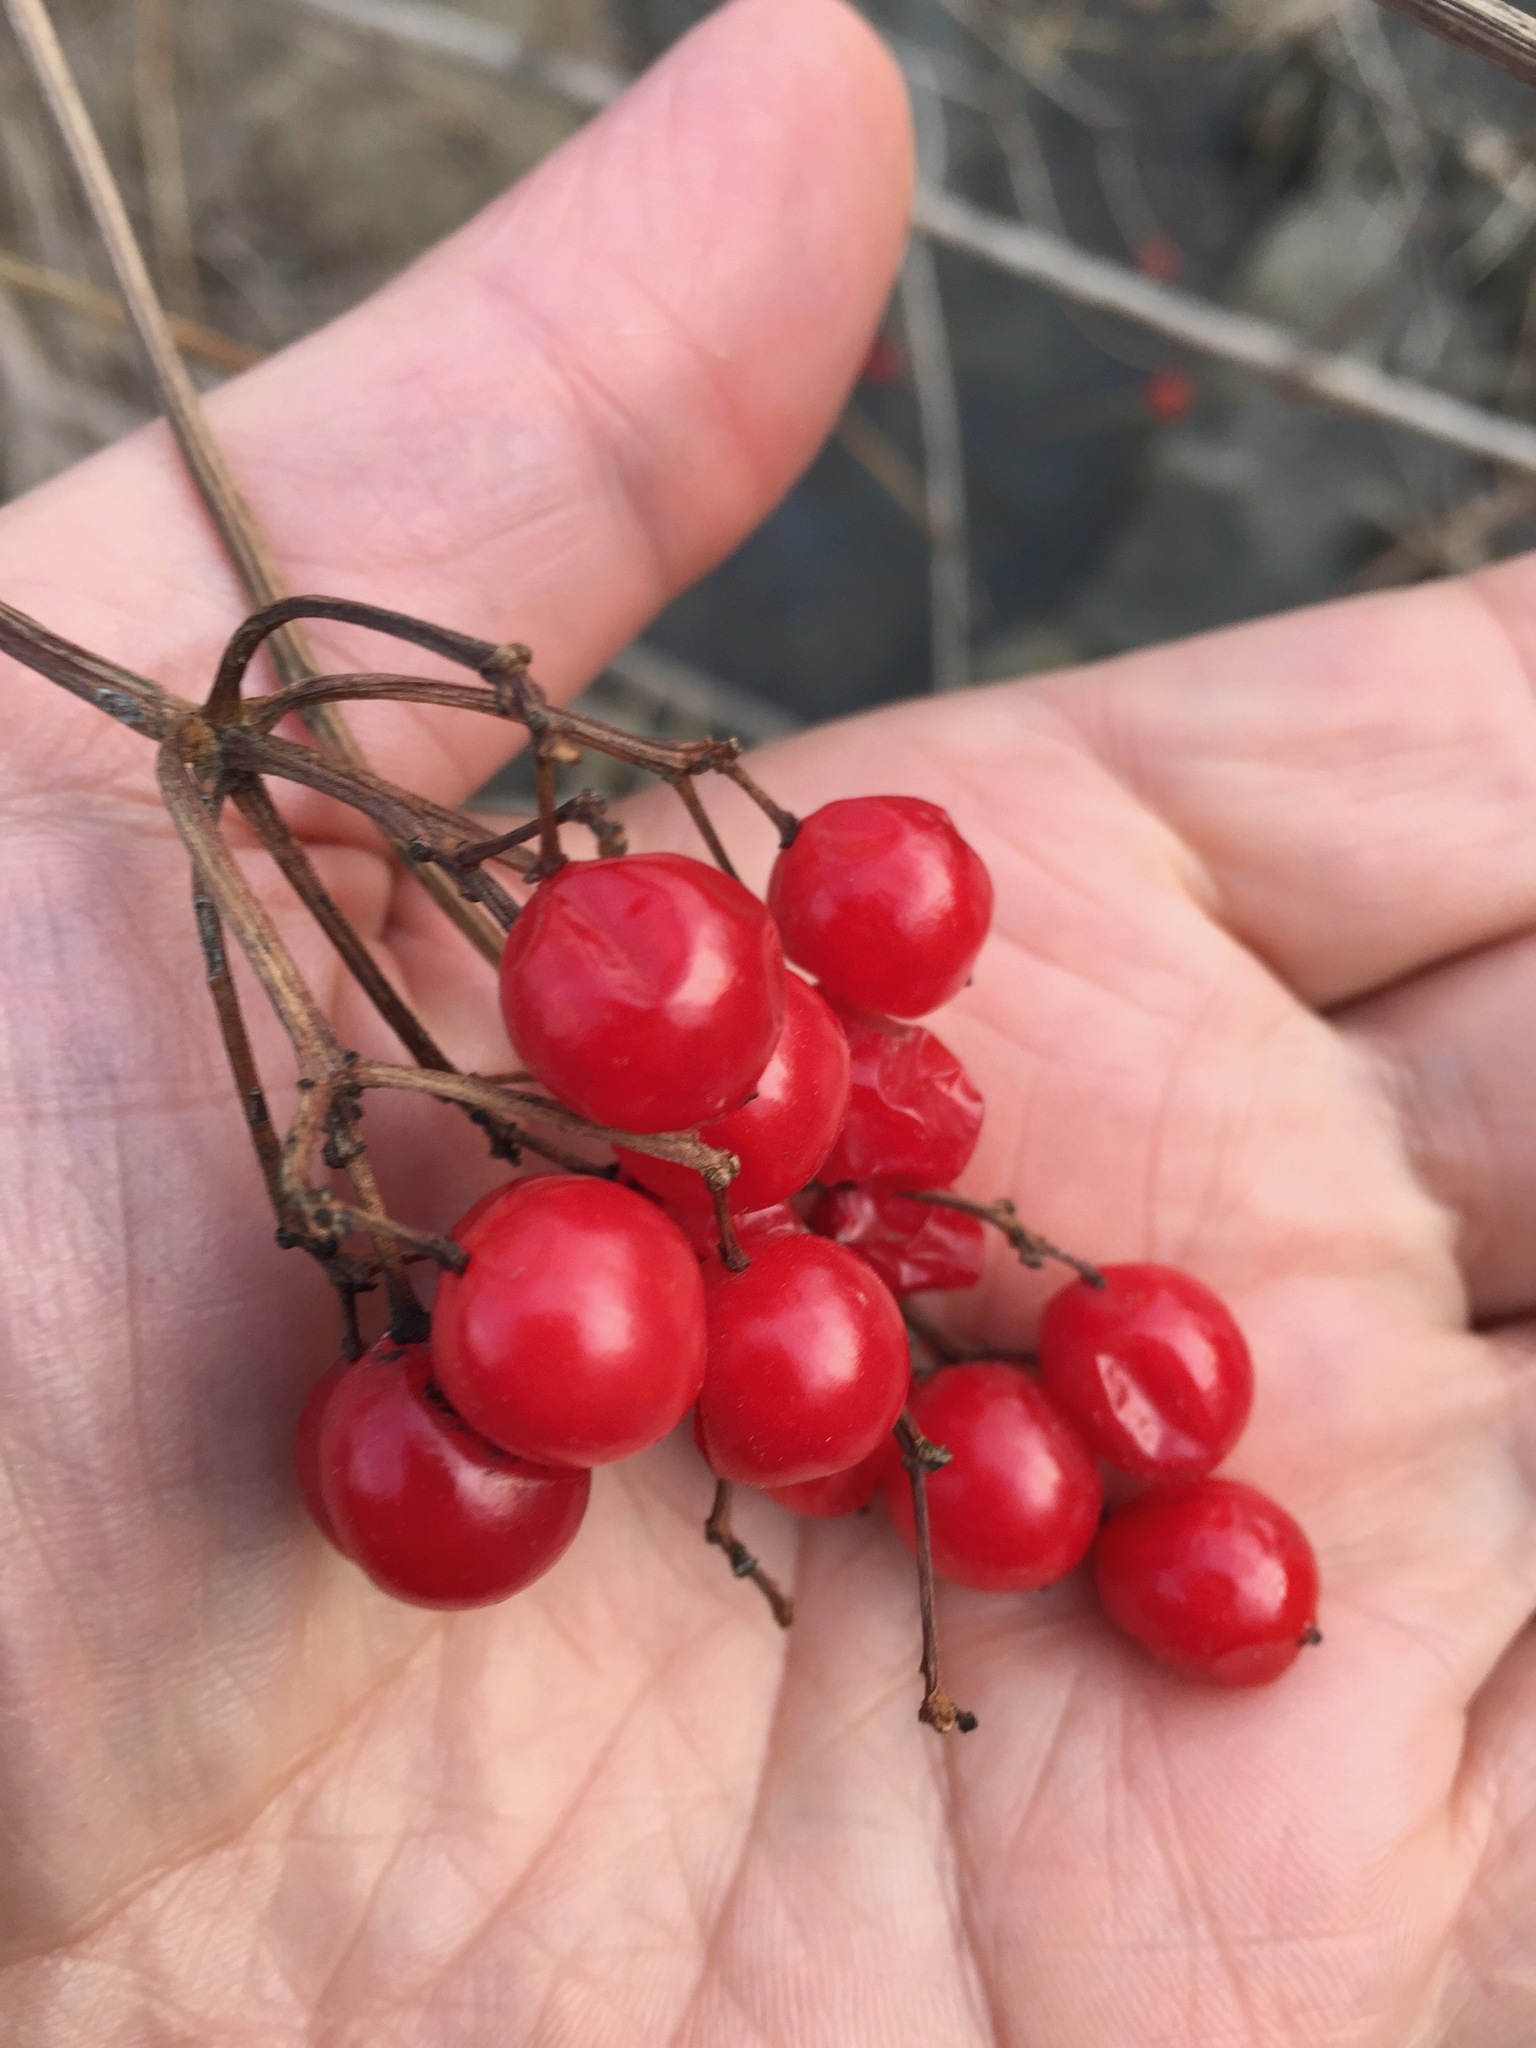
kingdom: Plantae
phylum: Tracheophyta
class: Magnoliopsida
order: Dipsacales
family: Viburnaceae
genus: Viburnum
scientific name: Viburnum opulus
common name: Guelder-rose
